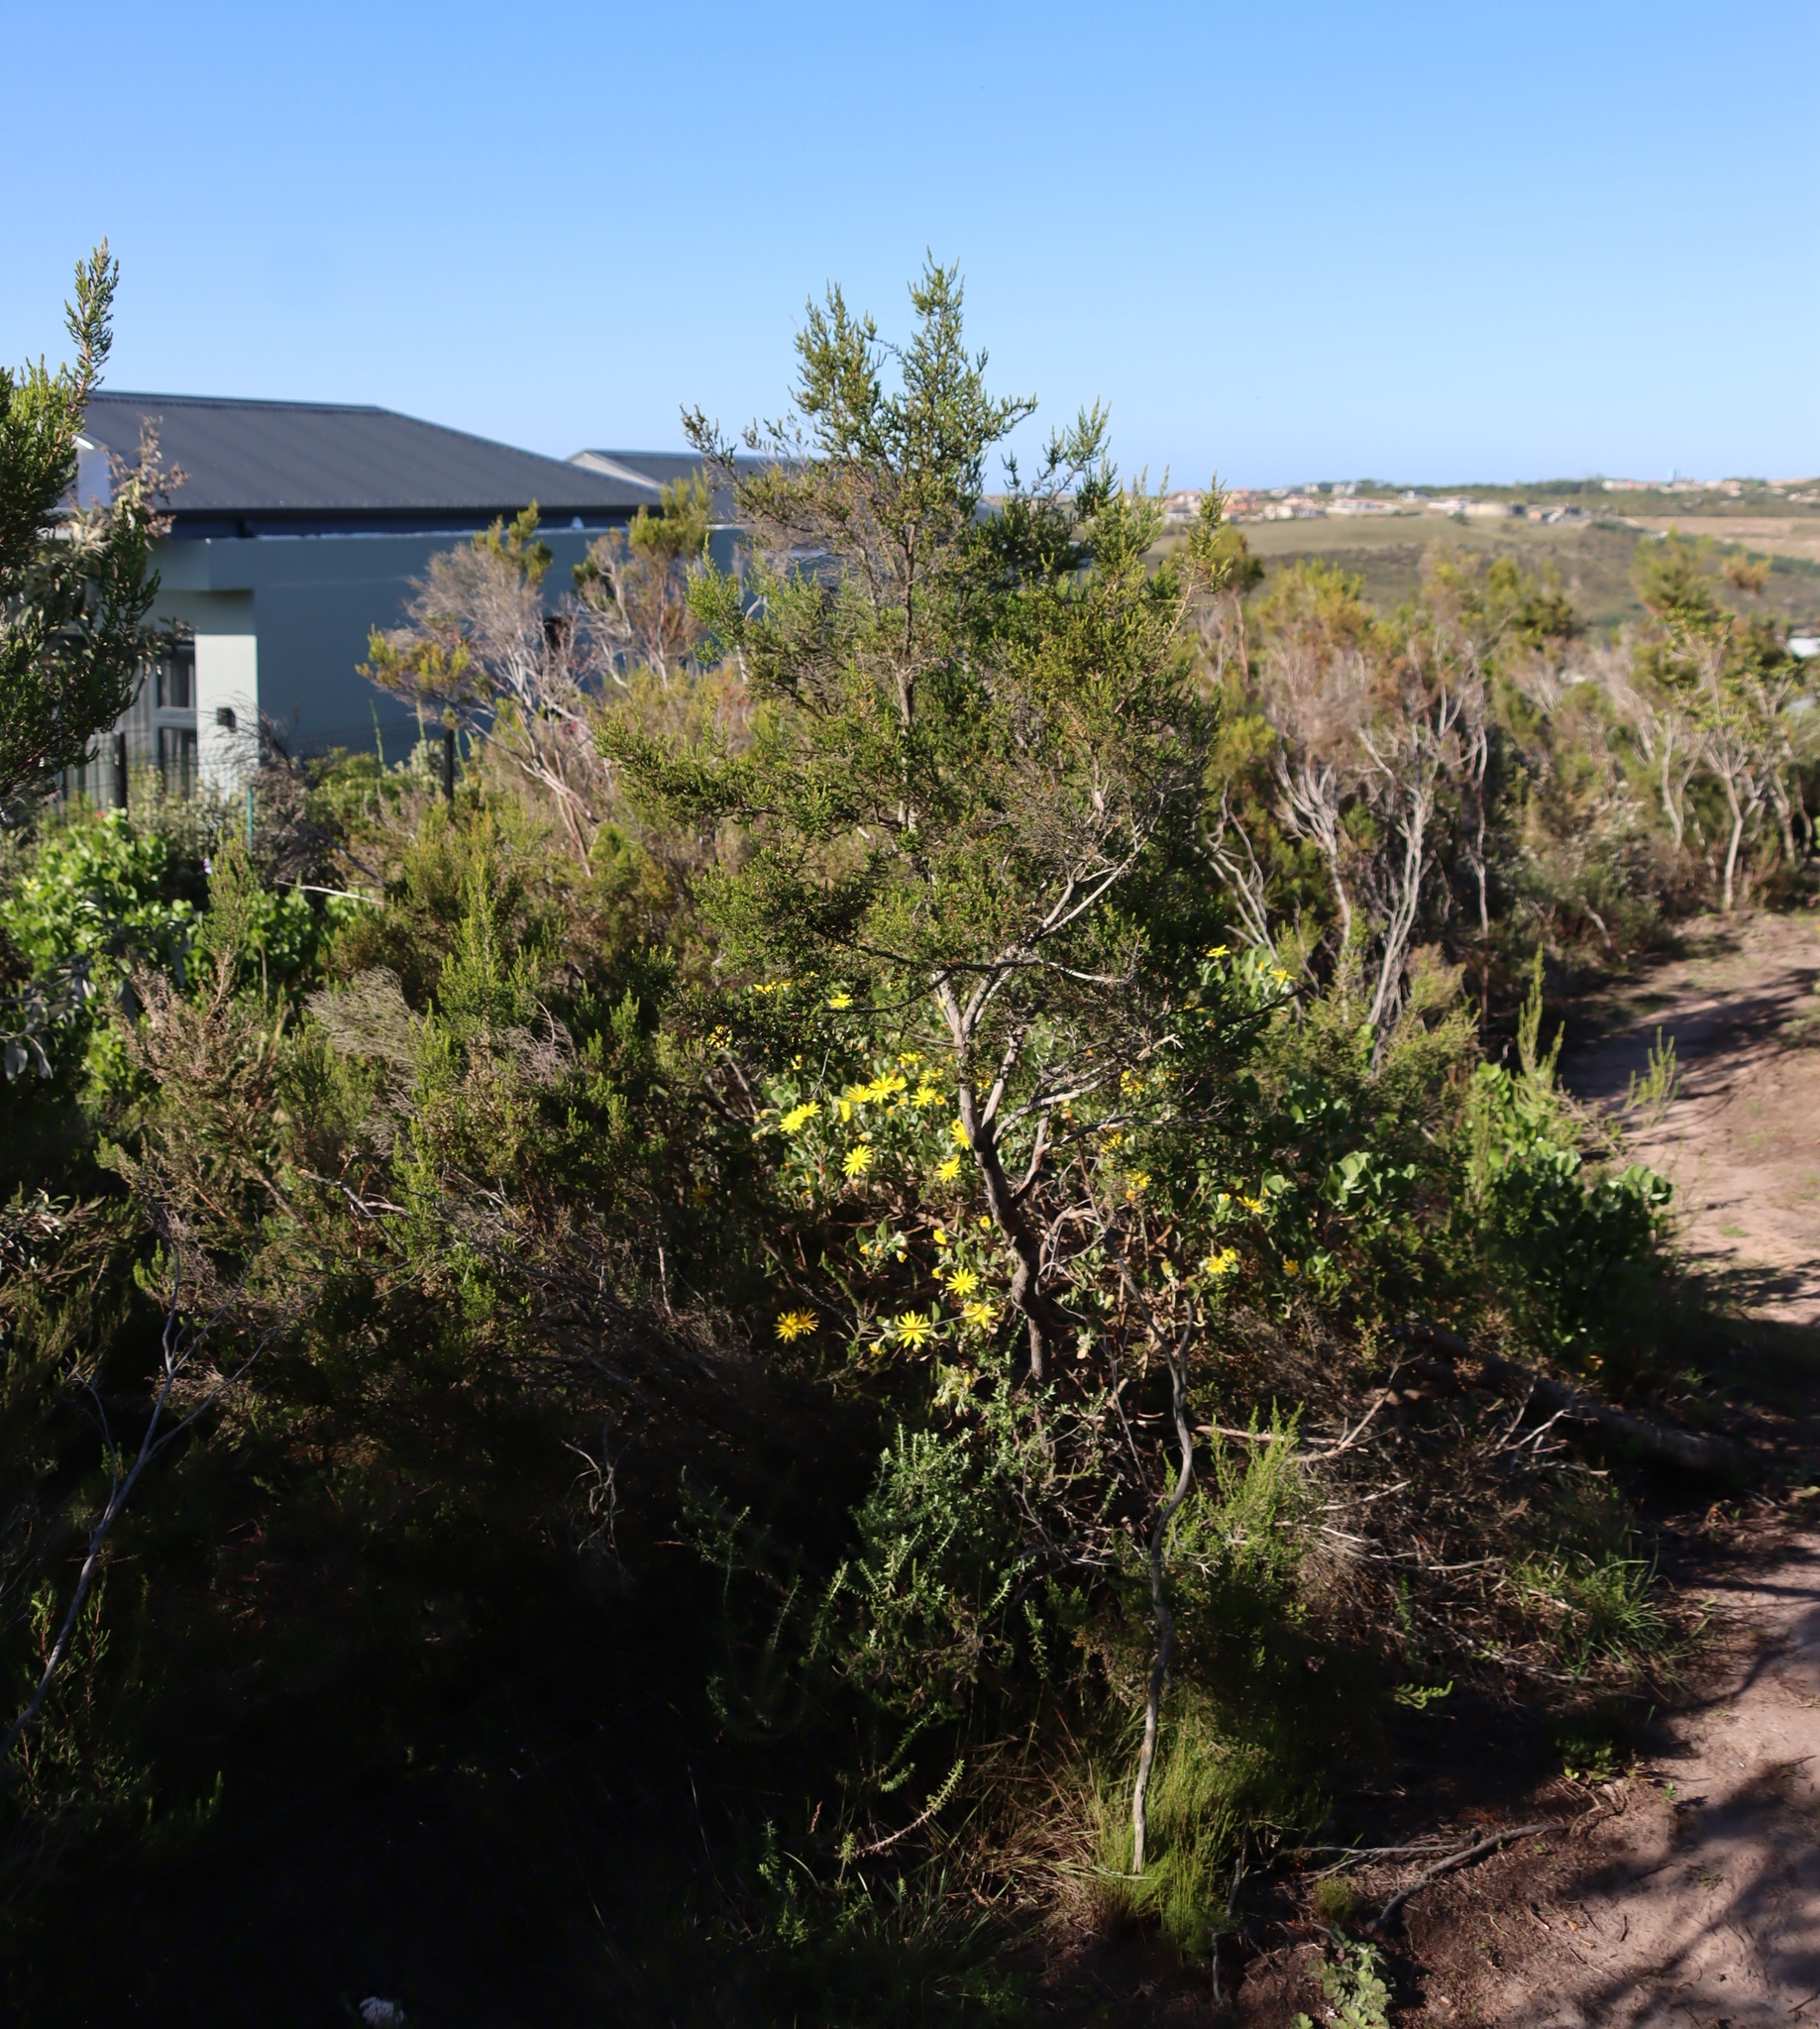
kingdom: Plantae
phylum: Tracheophyta
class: Magnoliopsida
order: Asterales
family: Asteraceae
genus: Osteospermum
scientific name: Osteospermum moniliferum
